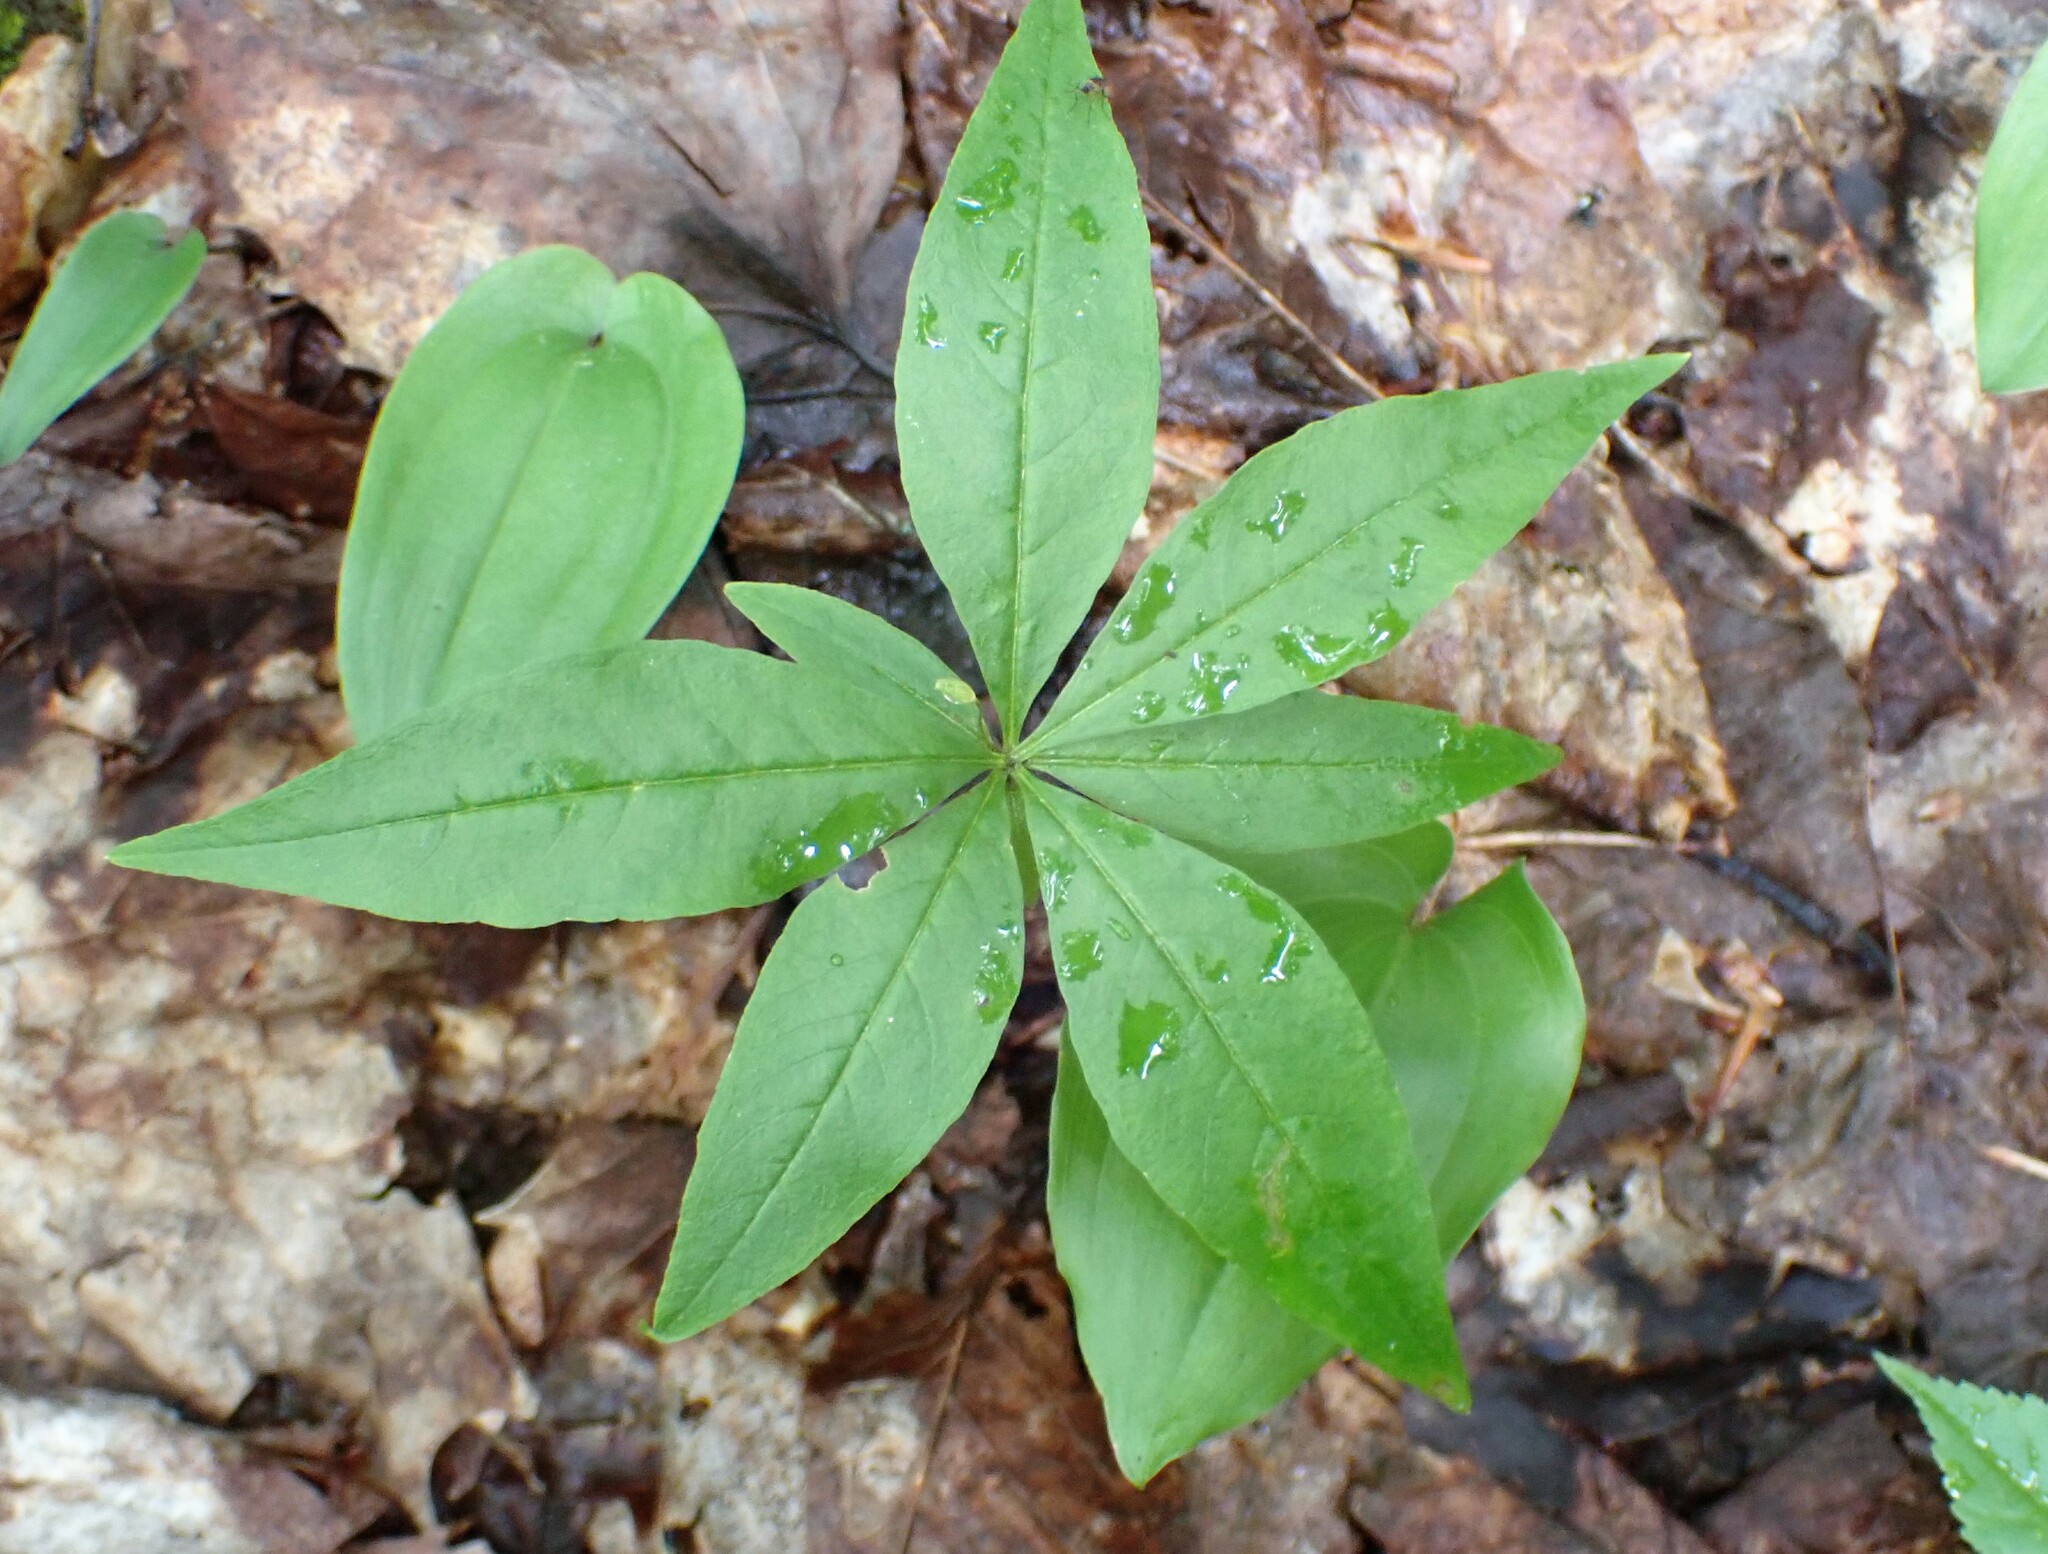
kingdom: Plantae
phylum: Tracheophyta
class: Magnoliopsida
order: Ericales
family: Primulaceae
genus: Lysimachia
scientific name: Lysimachia borealis
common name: American starflower
